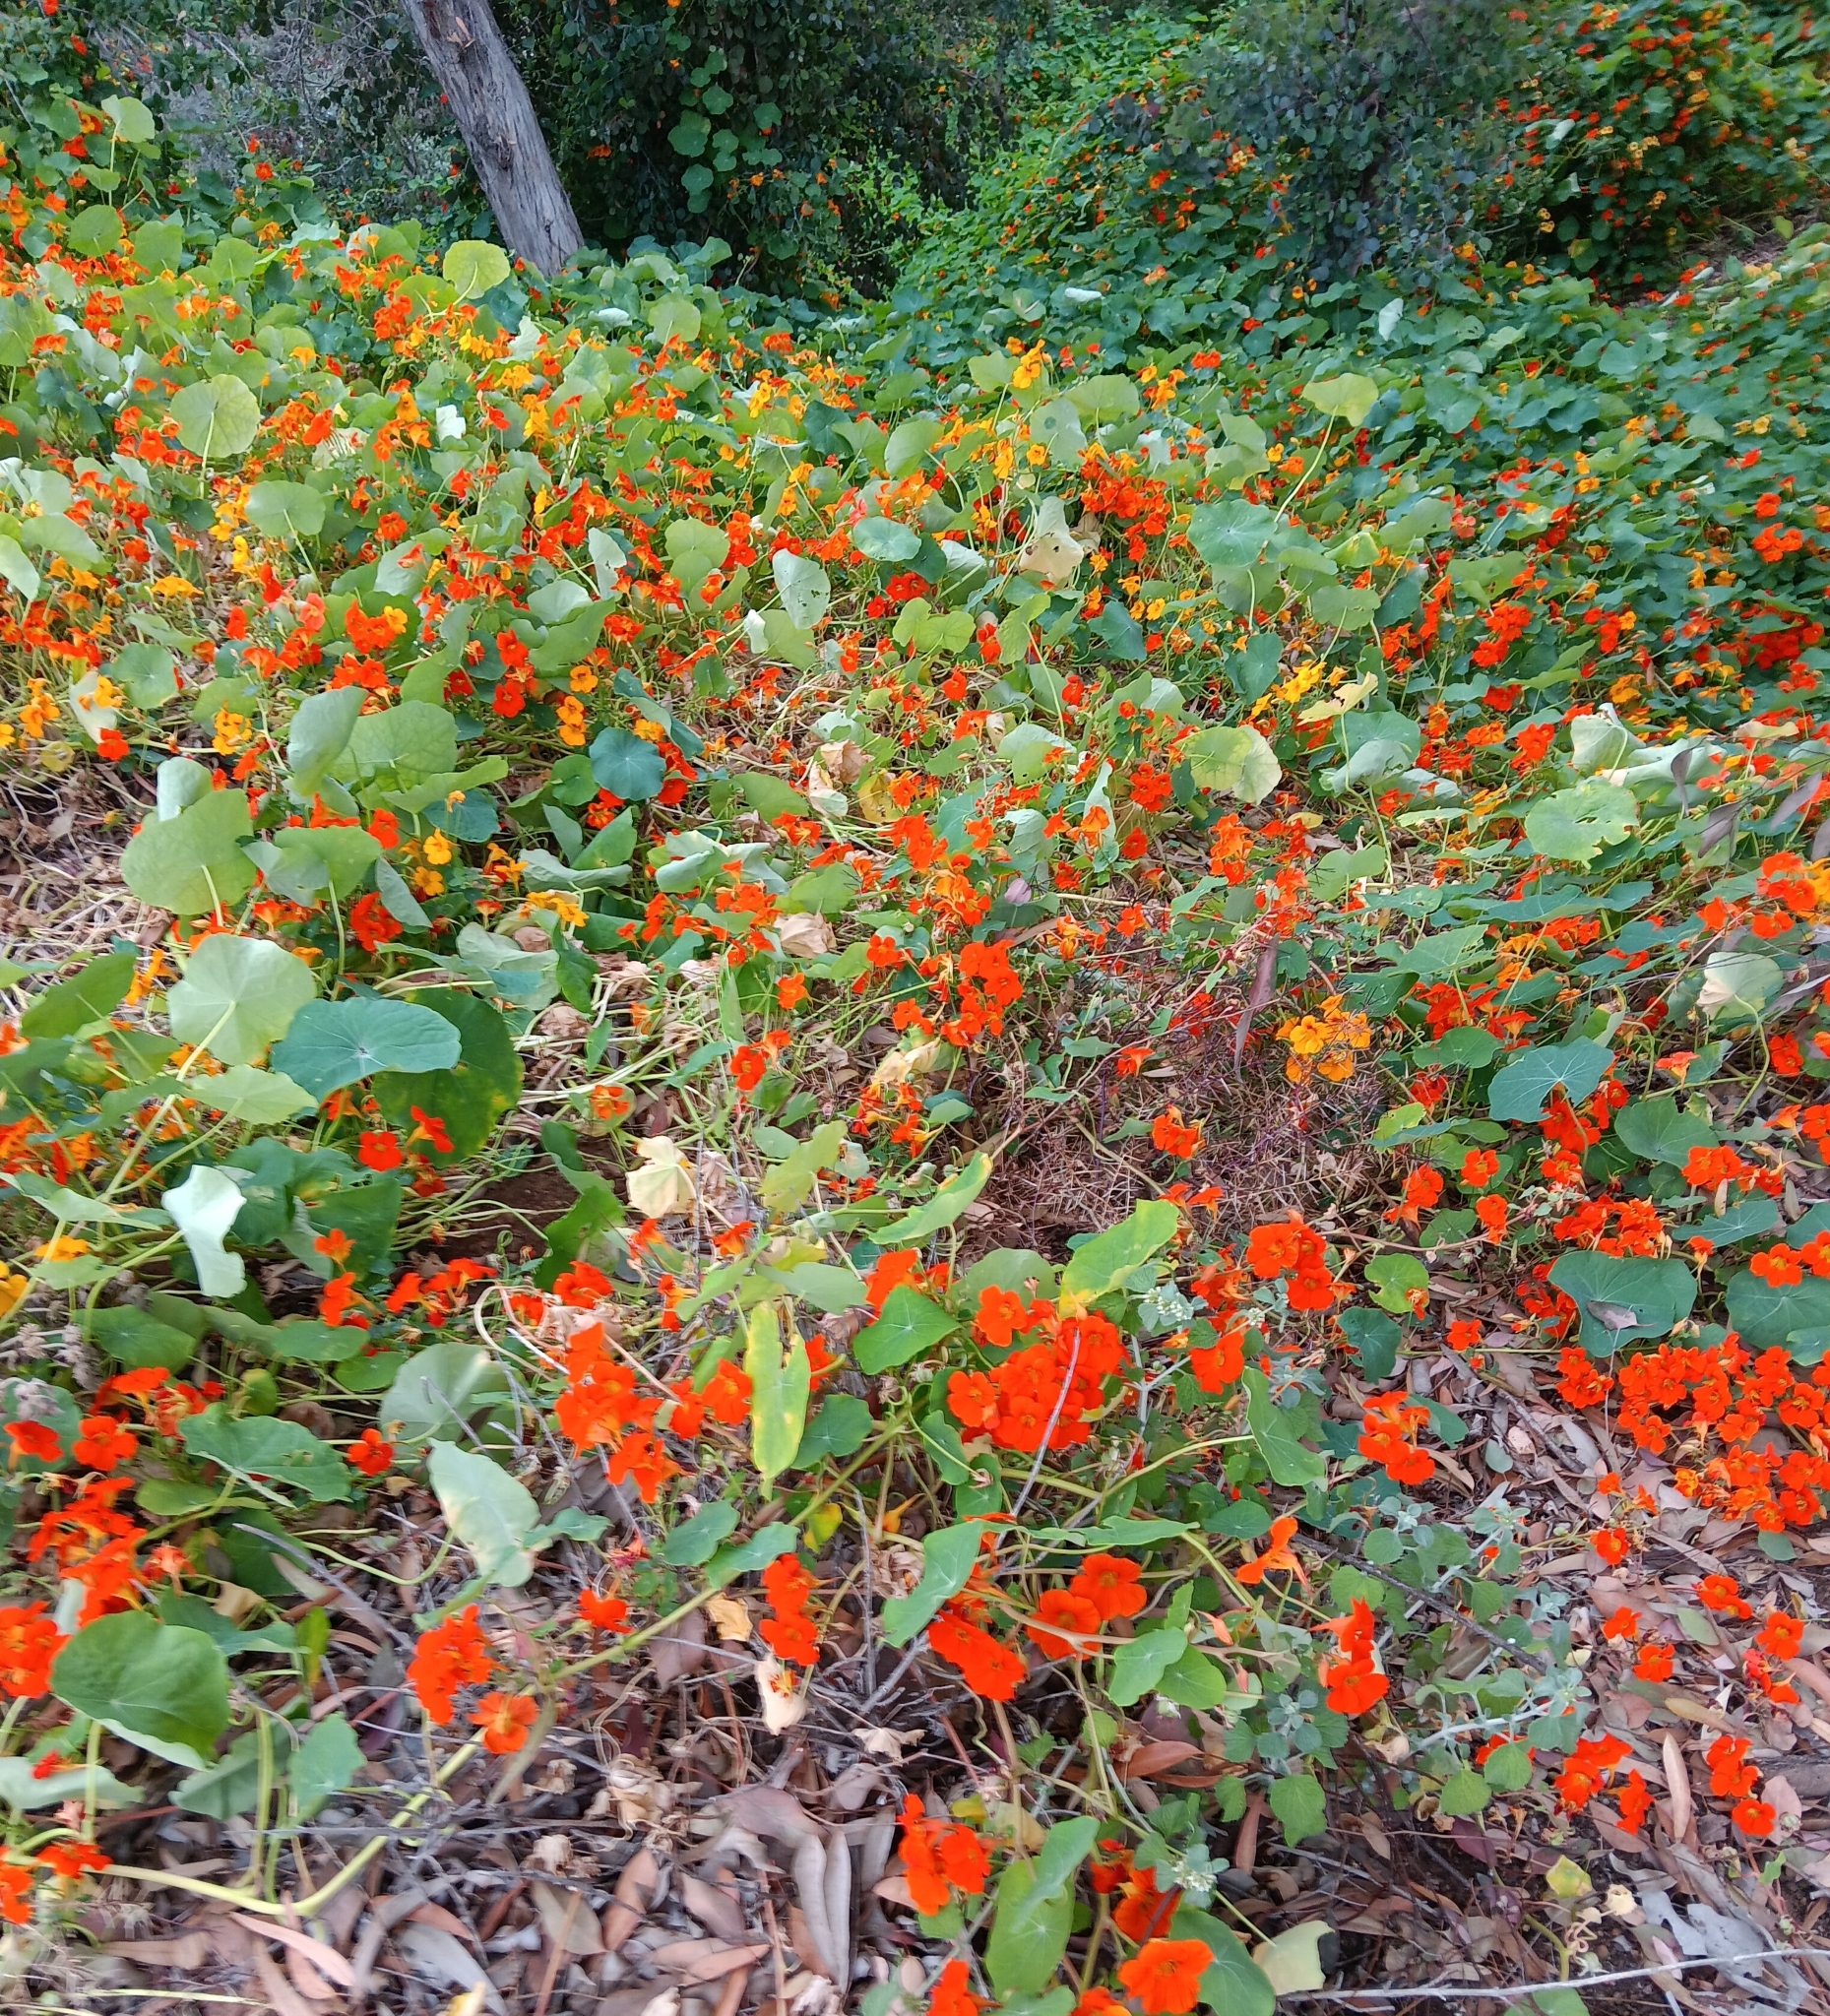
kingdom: Plantae
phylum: Tracheophyta
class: Magnoliopsida
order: Brassicales
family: Tropaeolaceae
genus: Tropaeolum
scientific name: Tropaeolum majus
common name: Nasturtium
